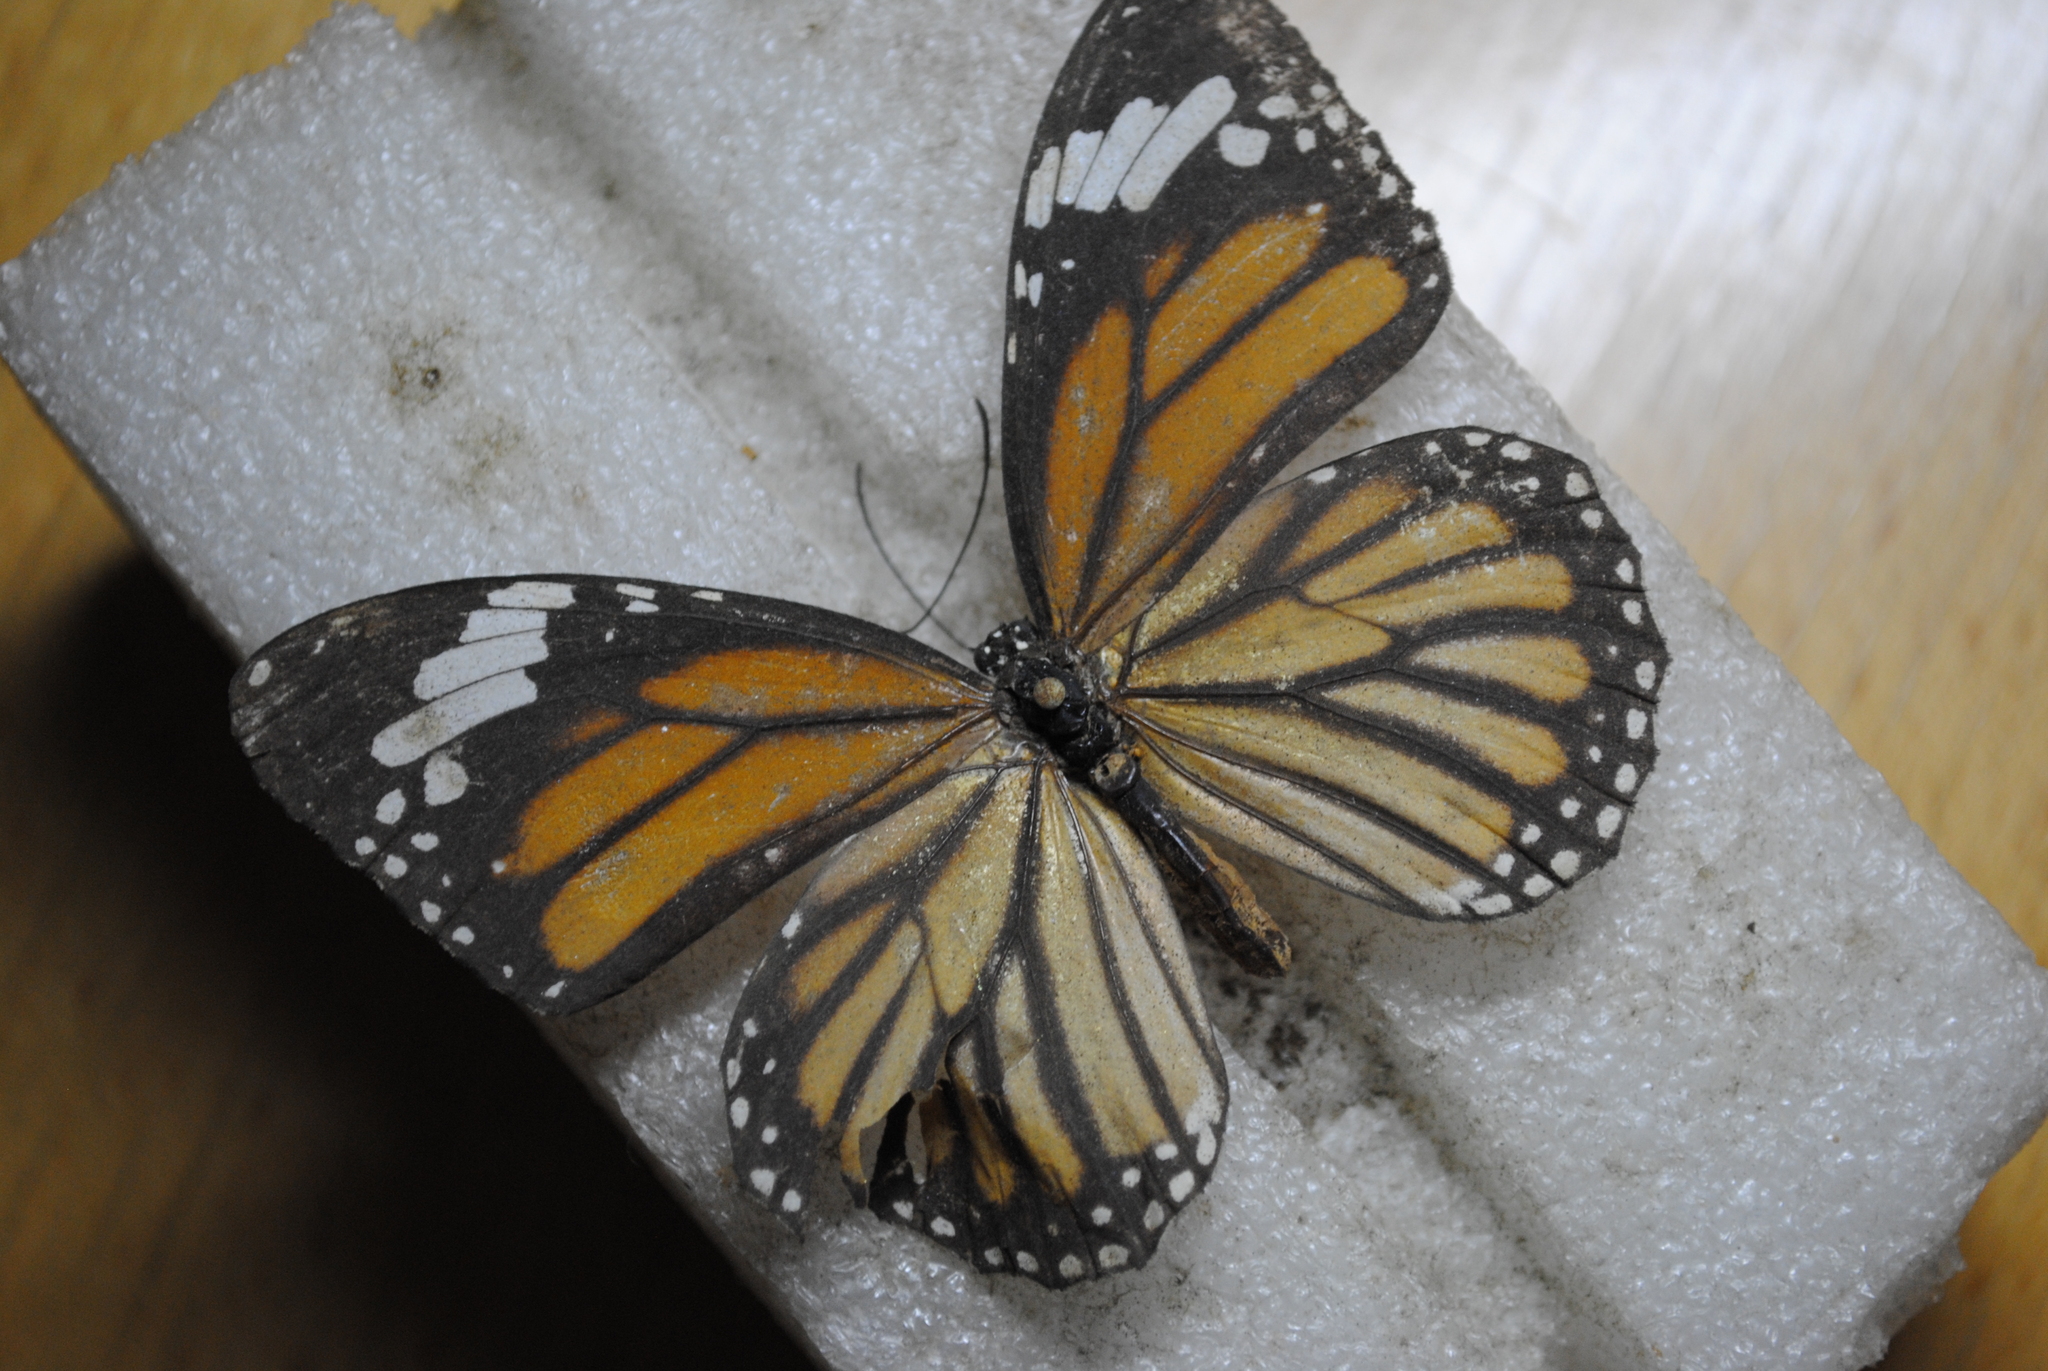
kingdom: Animalia
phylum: Arthropoda
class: Insecta
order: Lepidoptera
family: Nymphalidae
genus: Danaus
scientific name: Danaus genutia
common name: Common tiger butterfly
